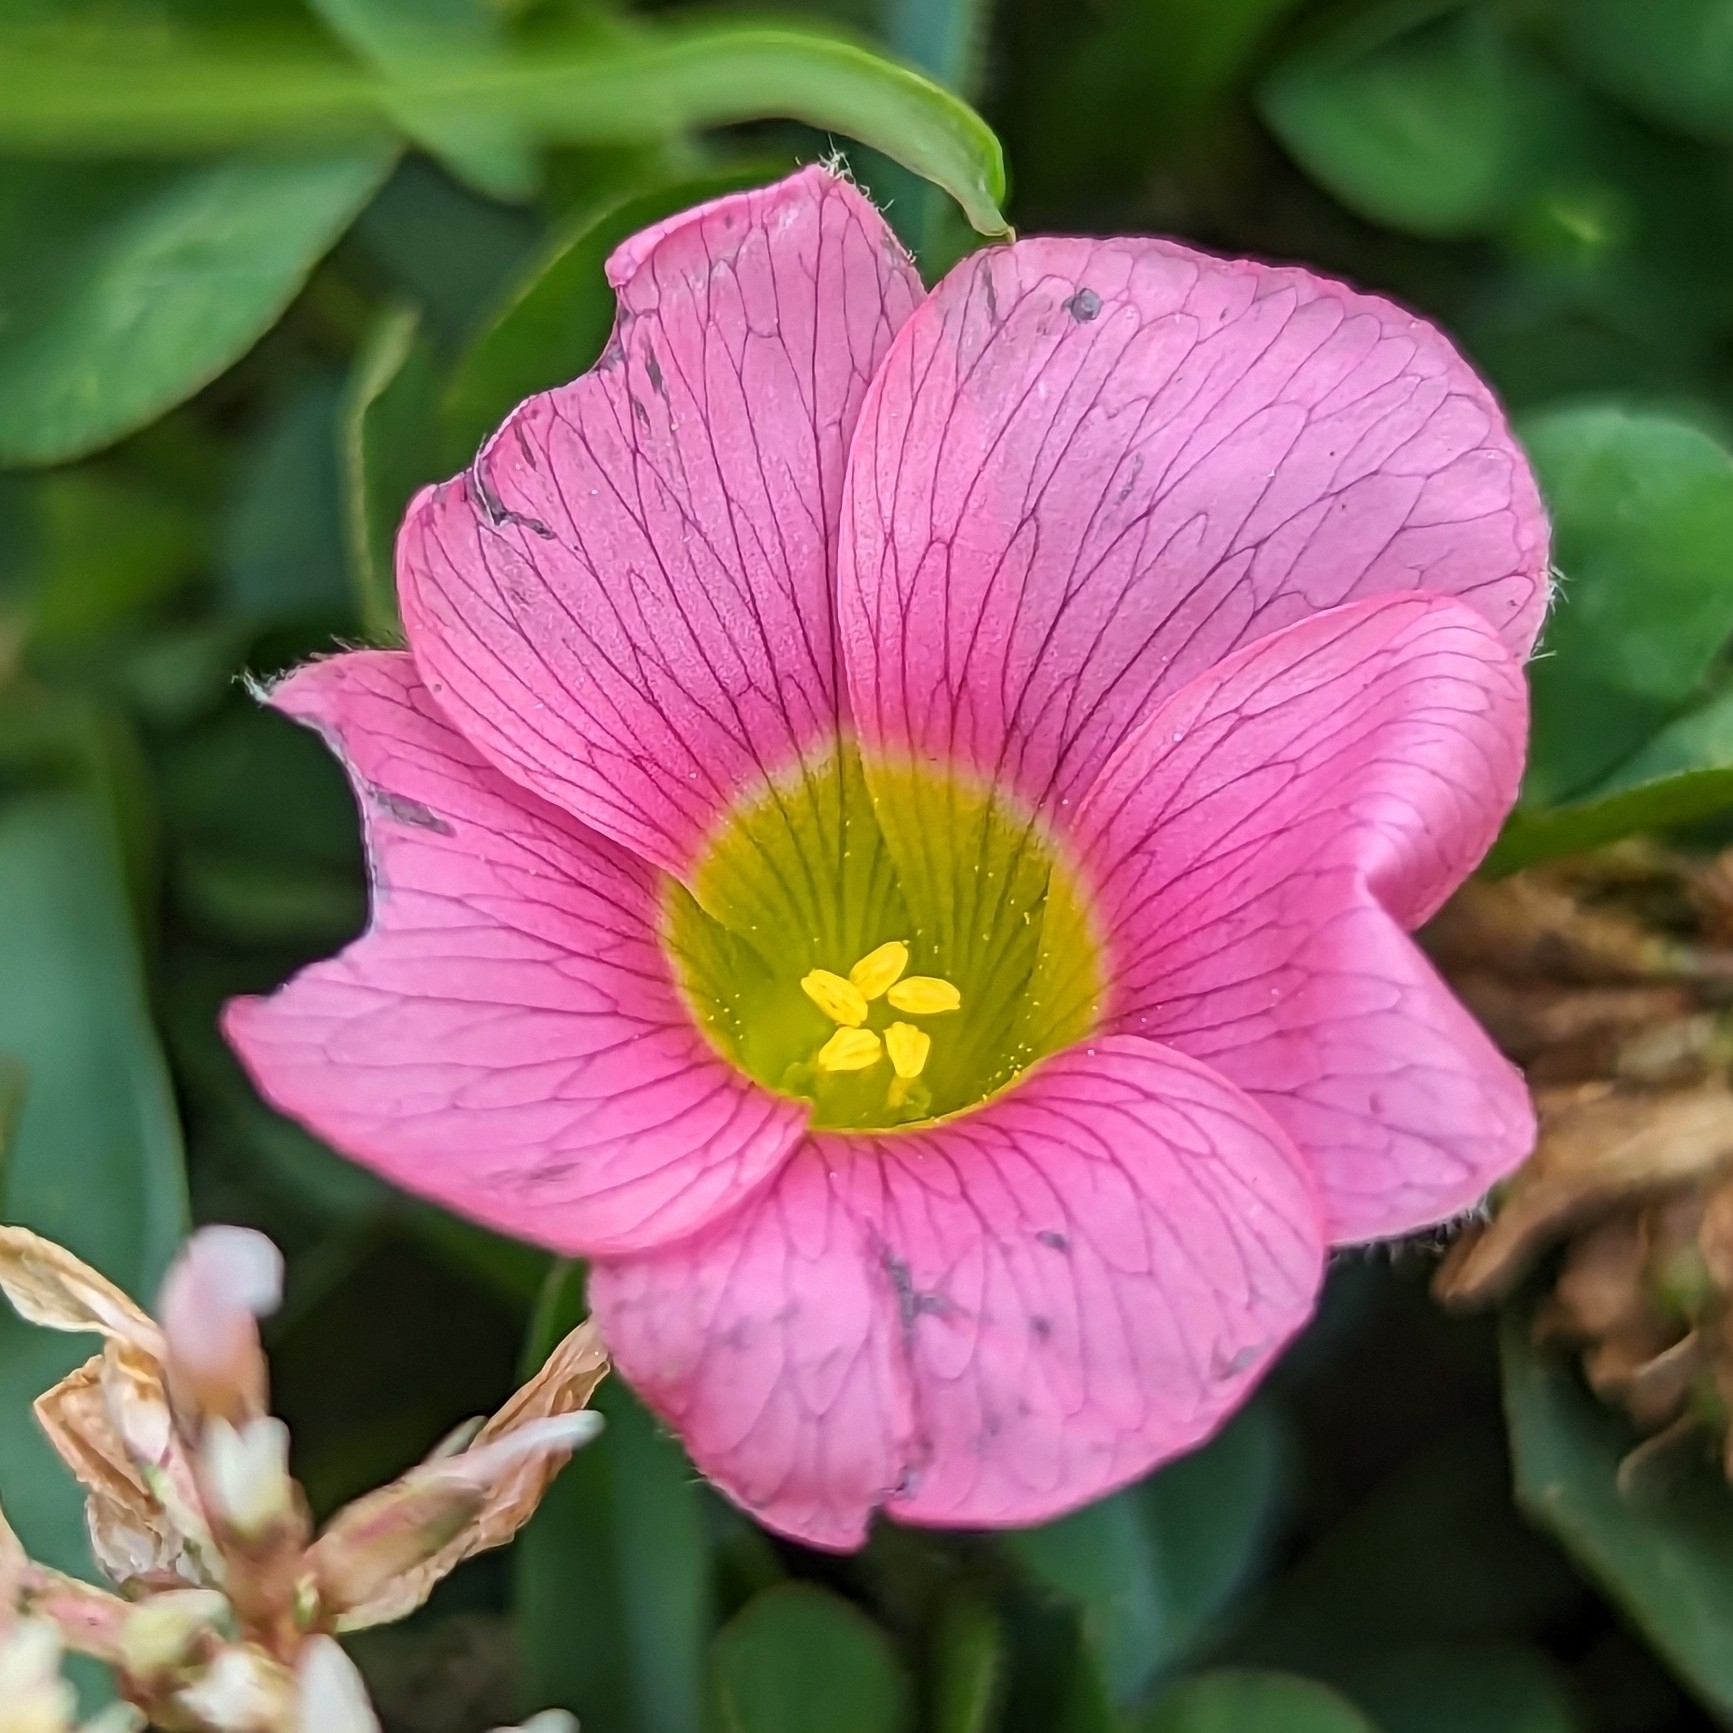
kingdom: Plantae
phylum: Tracheophyta
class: Magnoliopsida
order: Oxalidales
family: Oxalidaceae
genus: Oxalis
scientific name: Oxalis purpurea
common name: Purple woodsorrel
